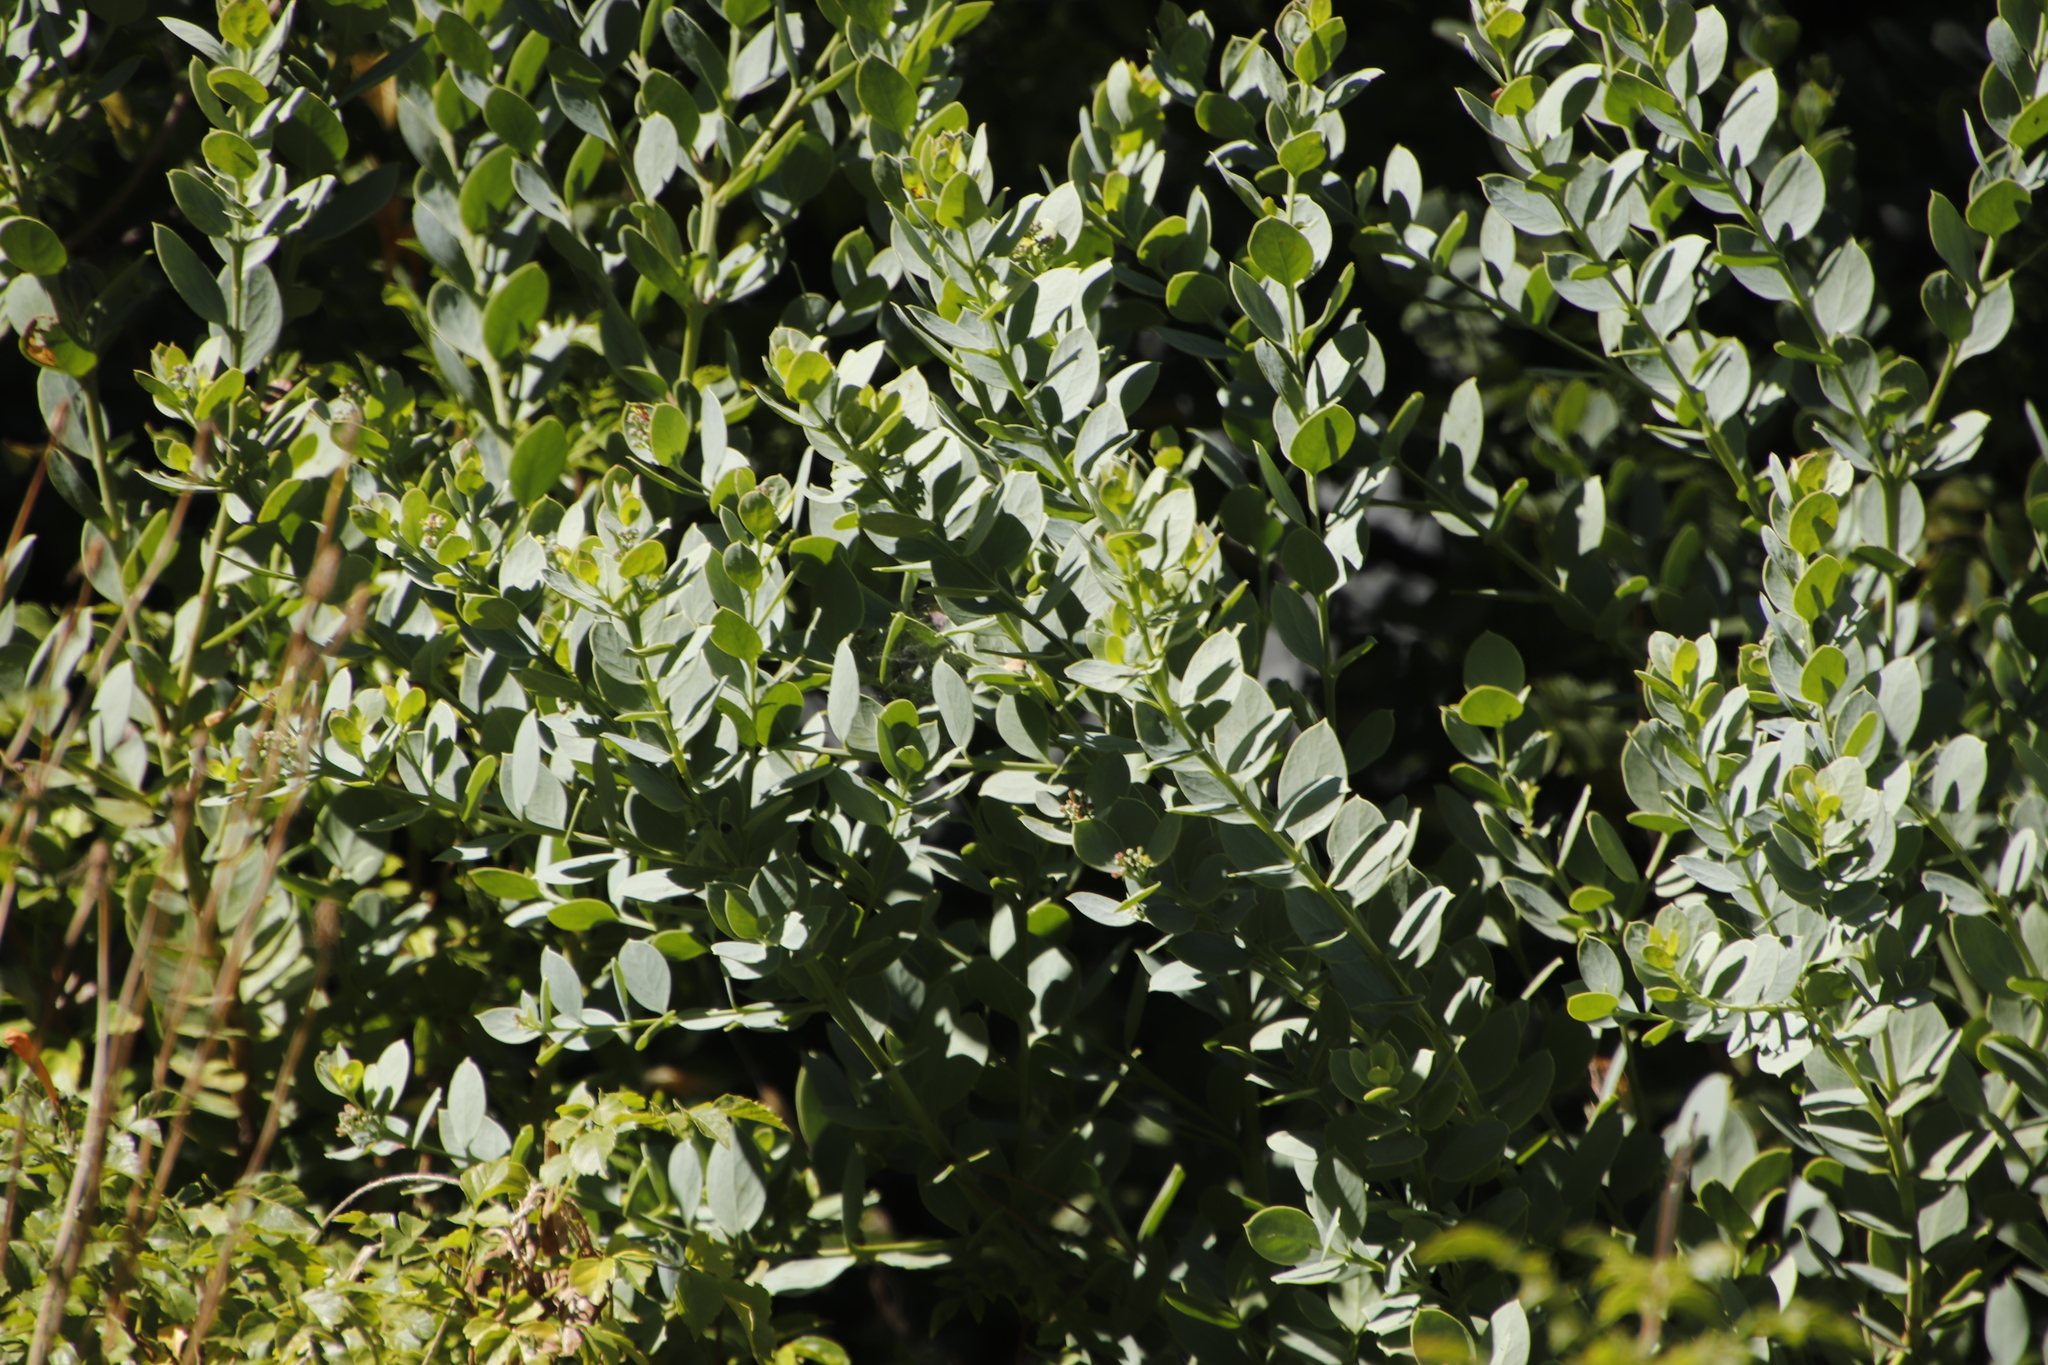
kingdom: Plantae
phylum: Tracheophyta
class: Magnoliopsida
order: Santalales
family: Santalaceae
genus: Osyris
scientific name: Osyris compressa
